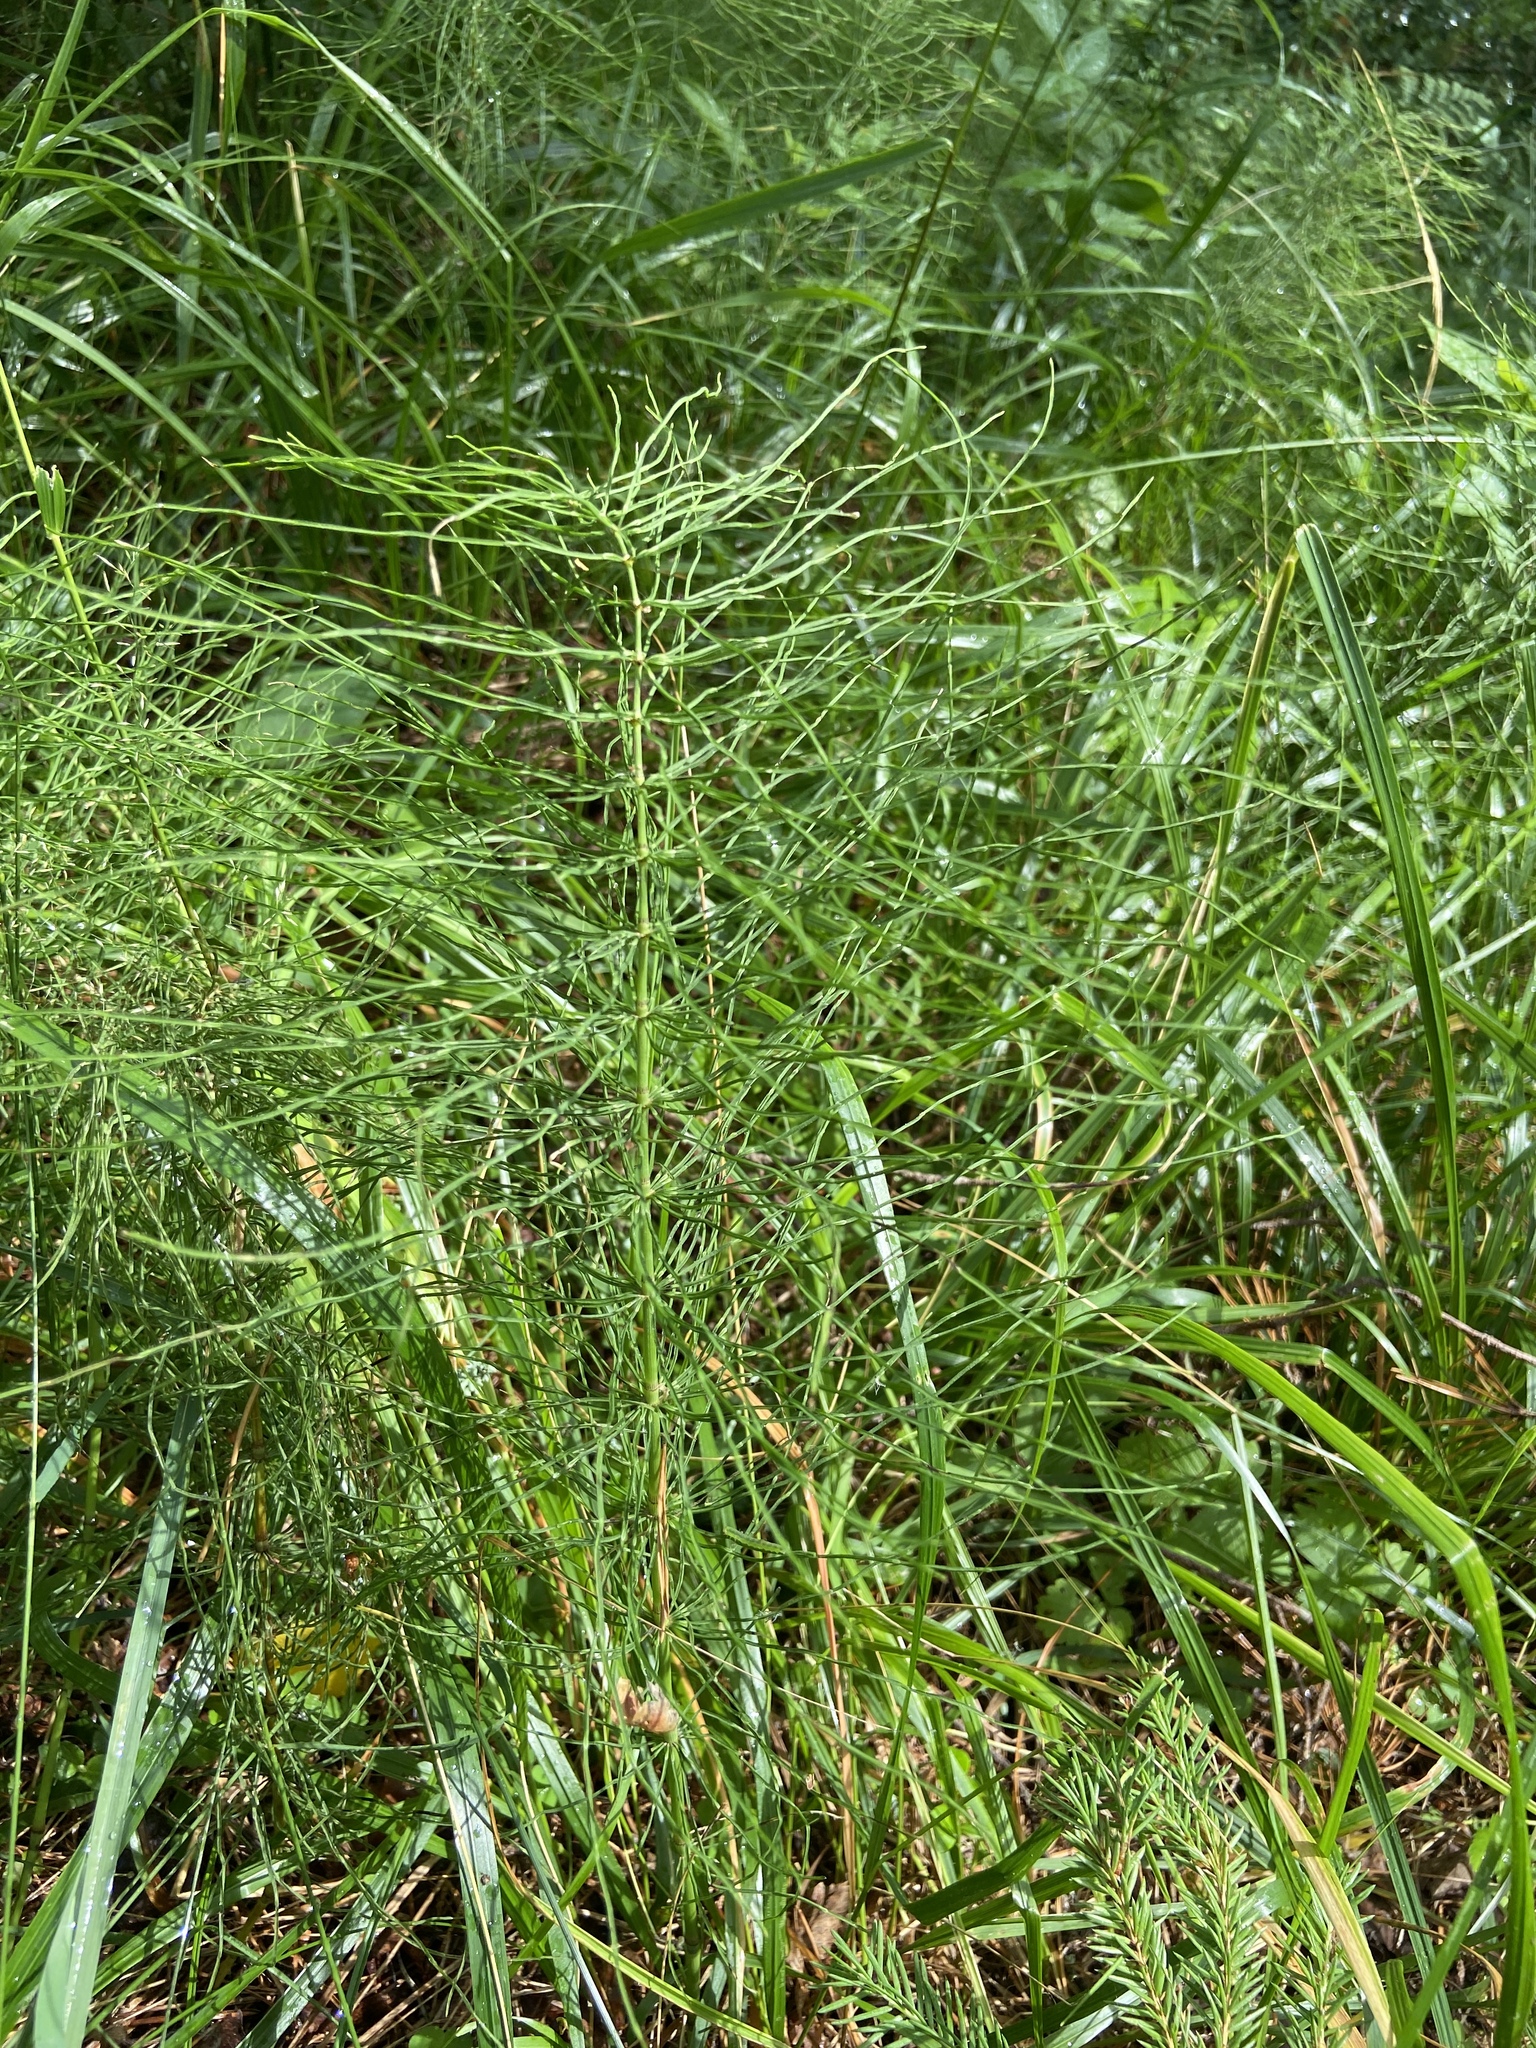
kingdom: Plantae
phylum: Tracheophyta
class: Polypodiopsida
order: Equisetales
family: Equisetaceae
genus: Equisetum
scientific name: Equisetum pratense
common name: Meadow horsetail
